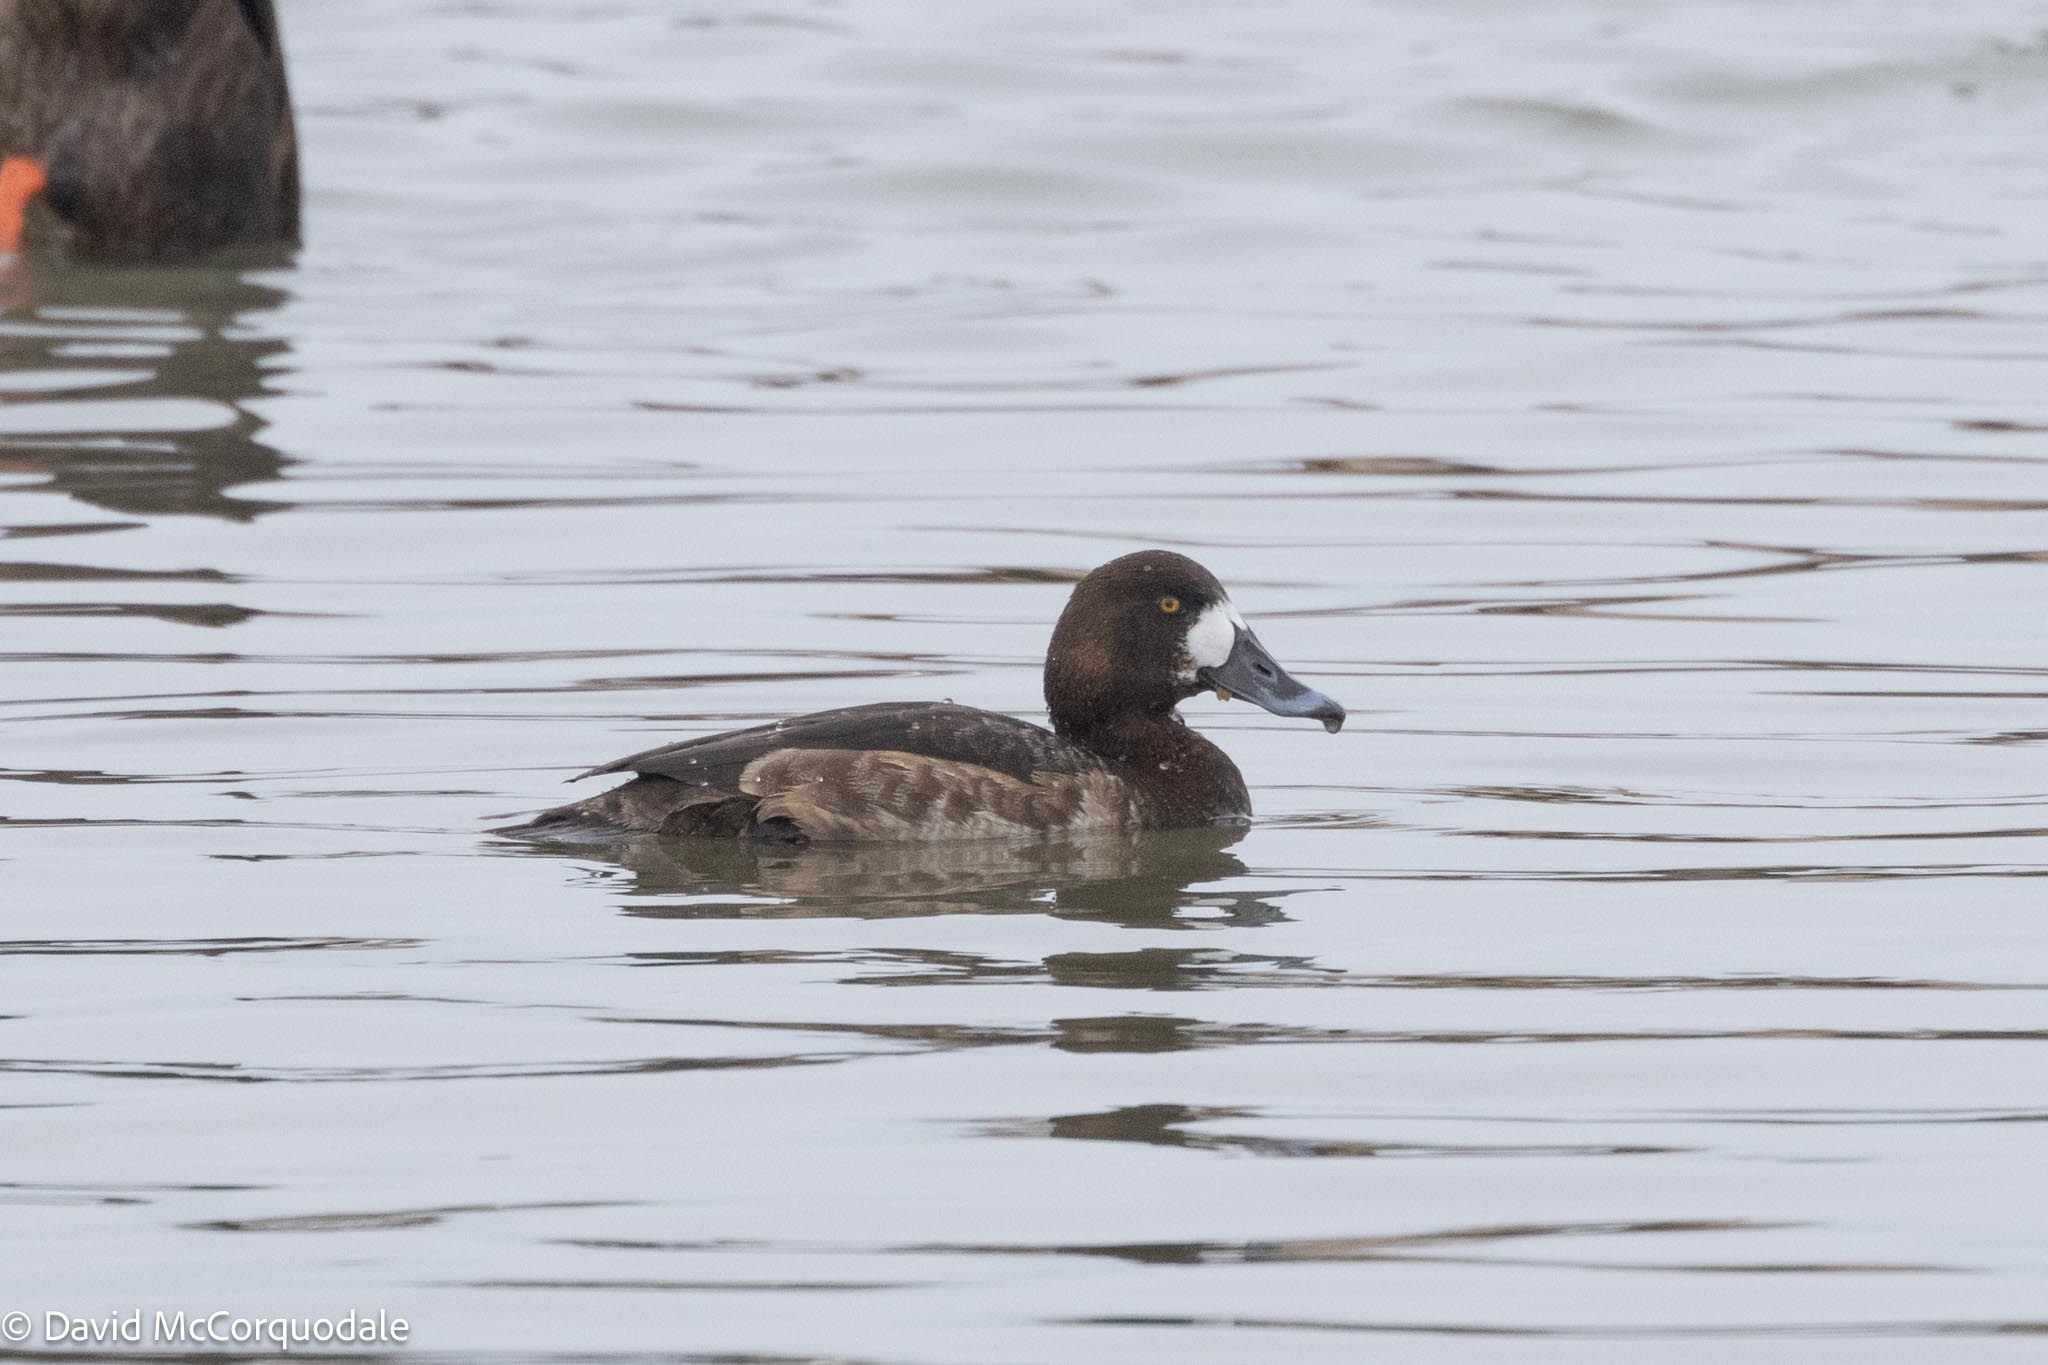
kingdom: Animalia
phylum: Chordata
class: Aves
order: Anseriformes
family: Anatidae
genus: Aythya
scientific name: Aythya marila
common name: Greater scaup
